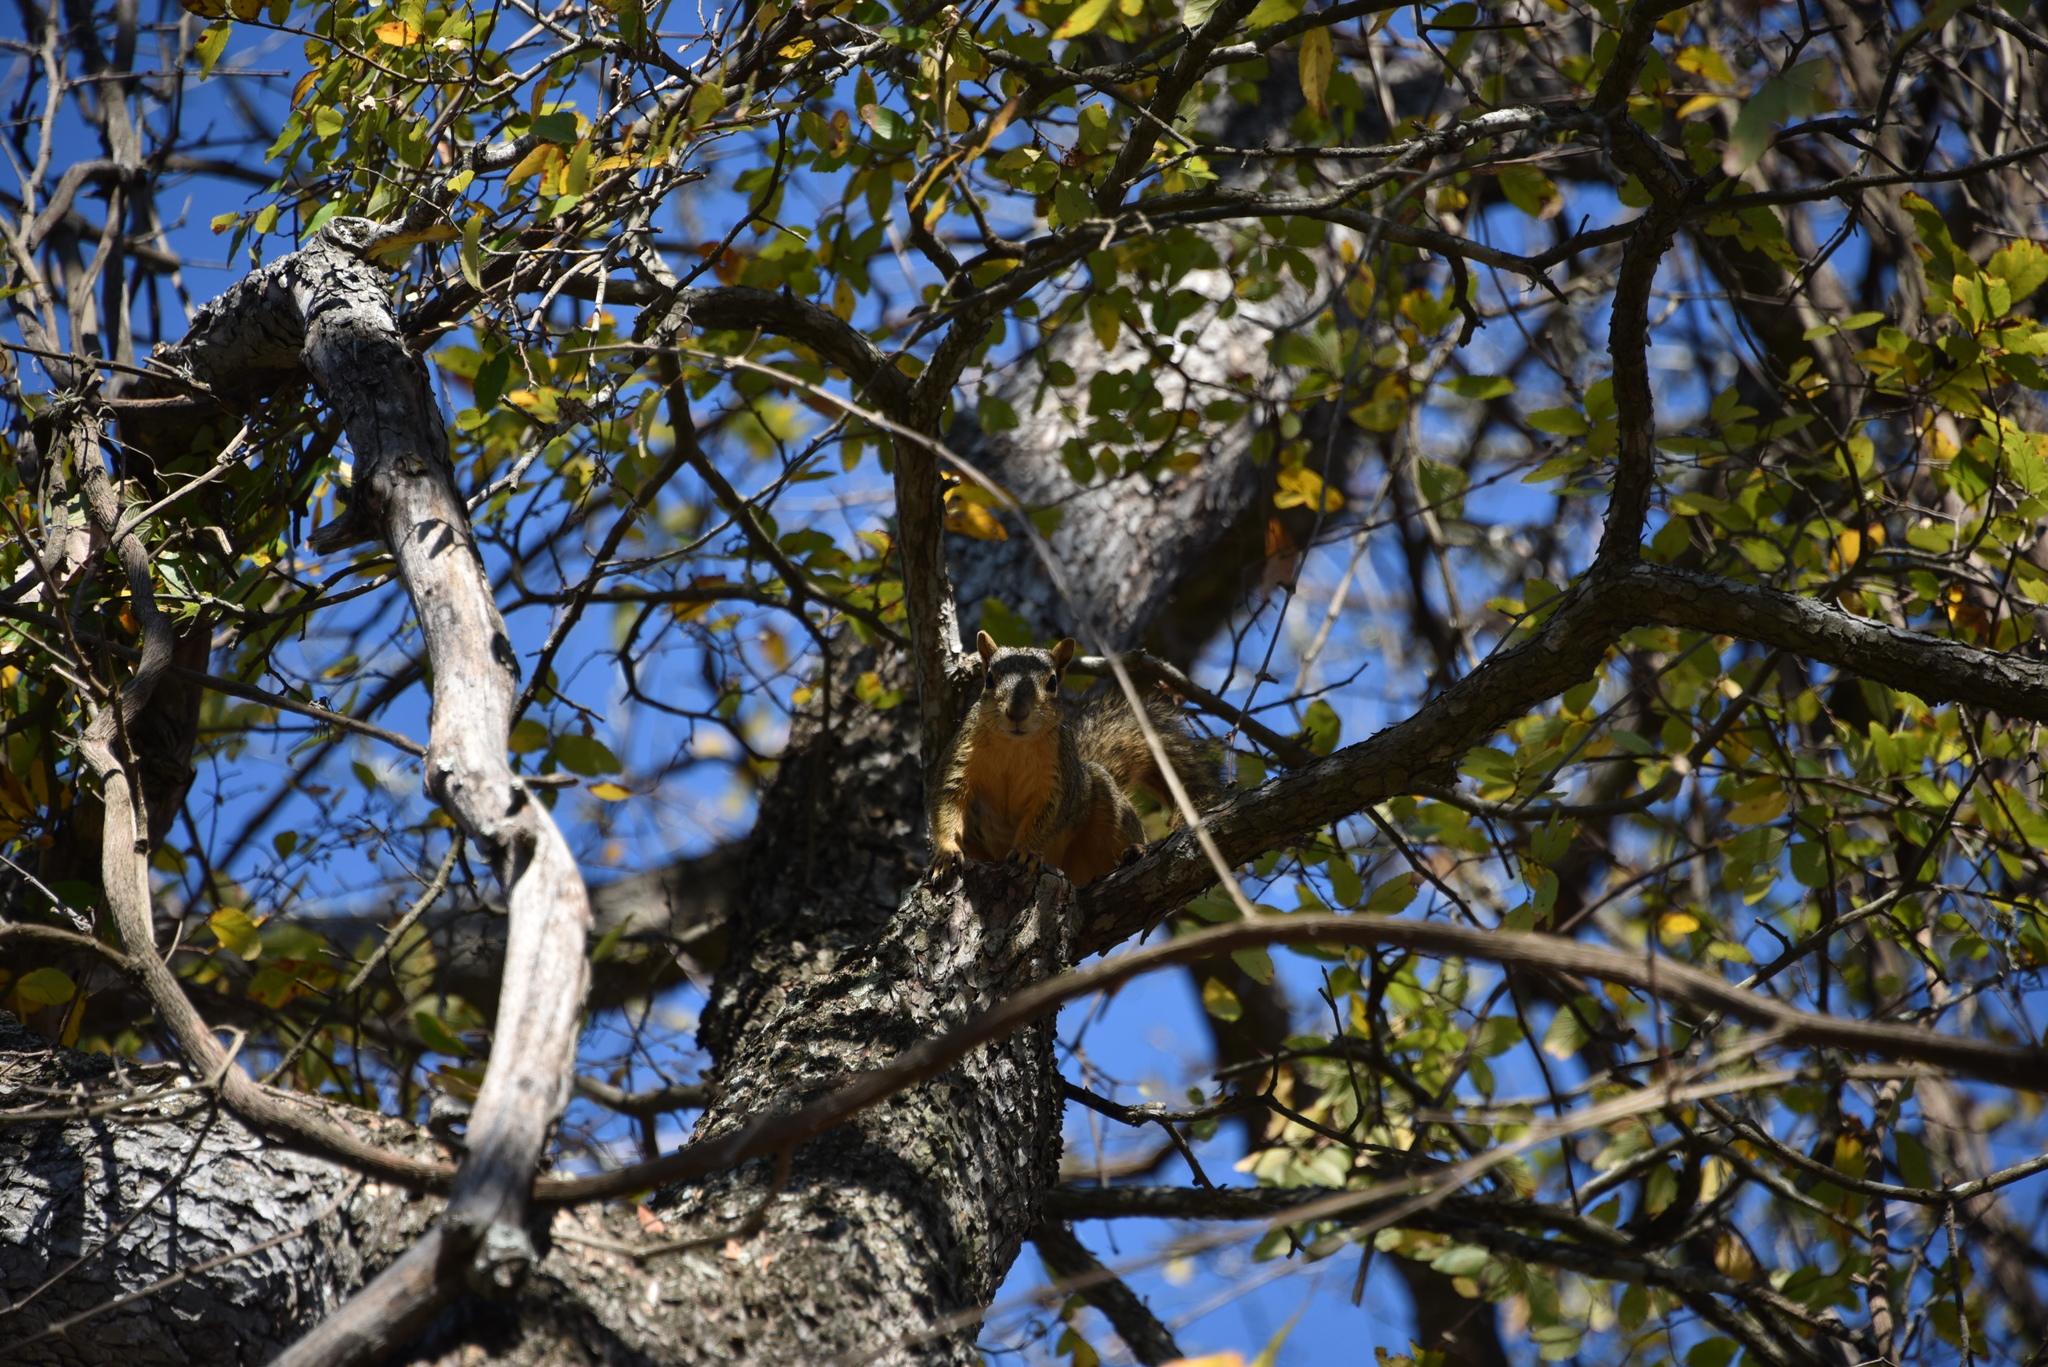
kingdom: Animalia
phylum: Chordata
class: Mammalia
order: Rodentia
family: Sciuridae
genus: Sciurus
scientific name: Sciurus niger
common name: Fox squirrel
